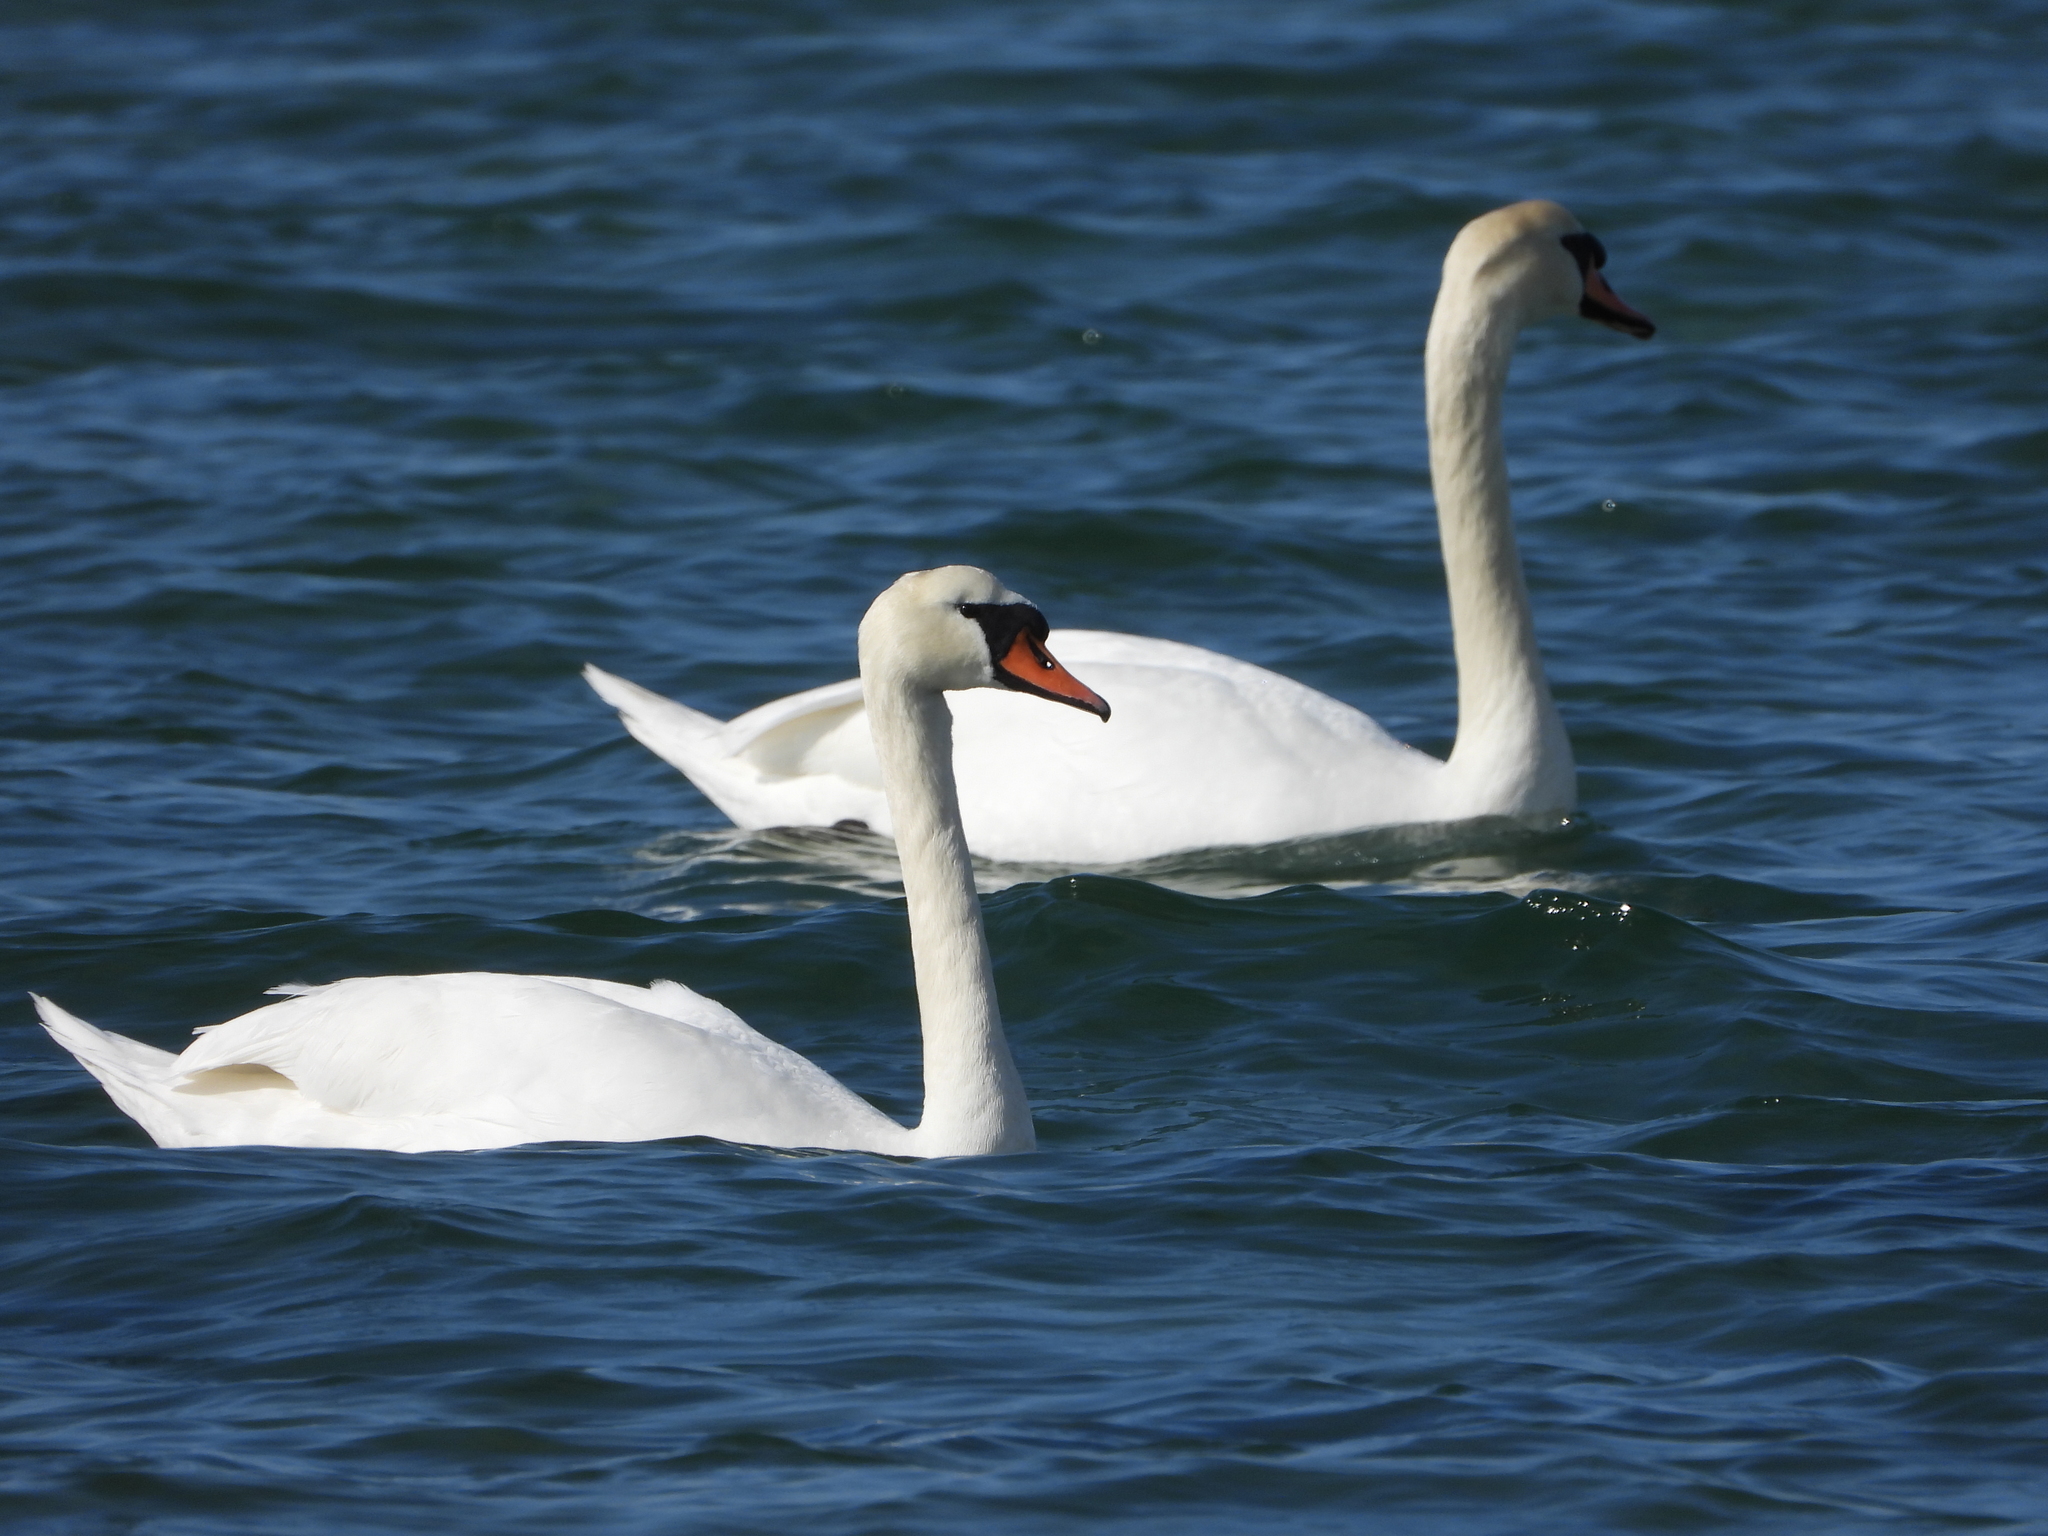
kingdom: Animalia
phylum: Chordata
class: Aves
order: Anseriformes
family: Anatidae
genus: Cygnus
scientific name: Cygnus olor
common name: Mute swan
